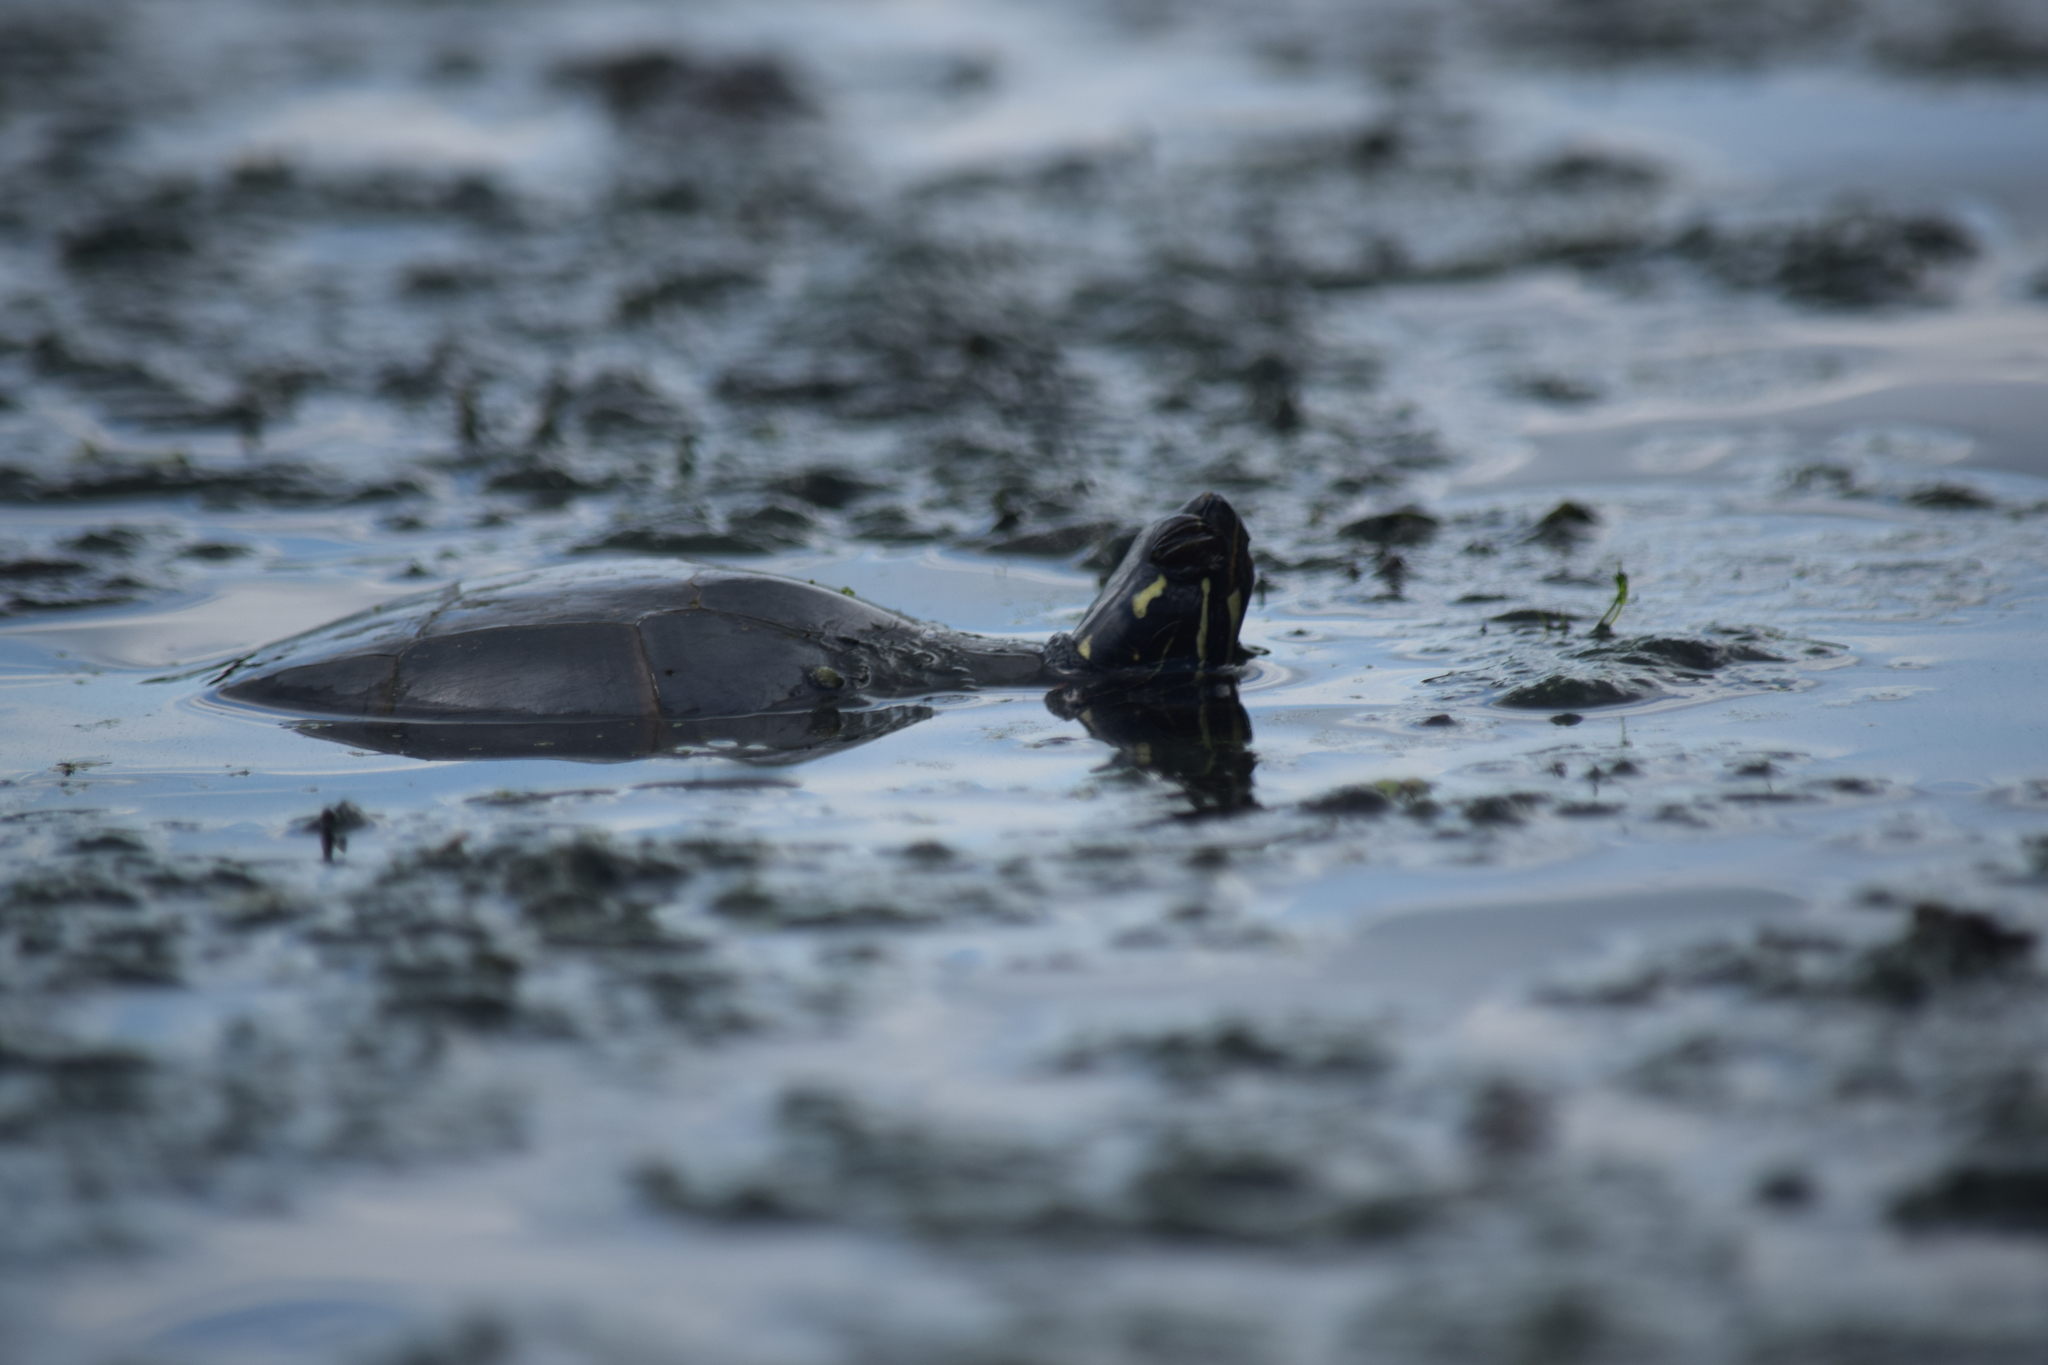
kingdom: Animalia
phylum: Chordata
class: Testudines
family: Emydidae
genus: Chrysemys
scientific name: Chrysemys picta
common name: Painted turtle
